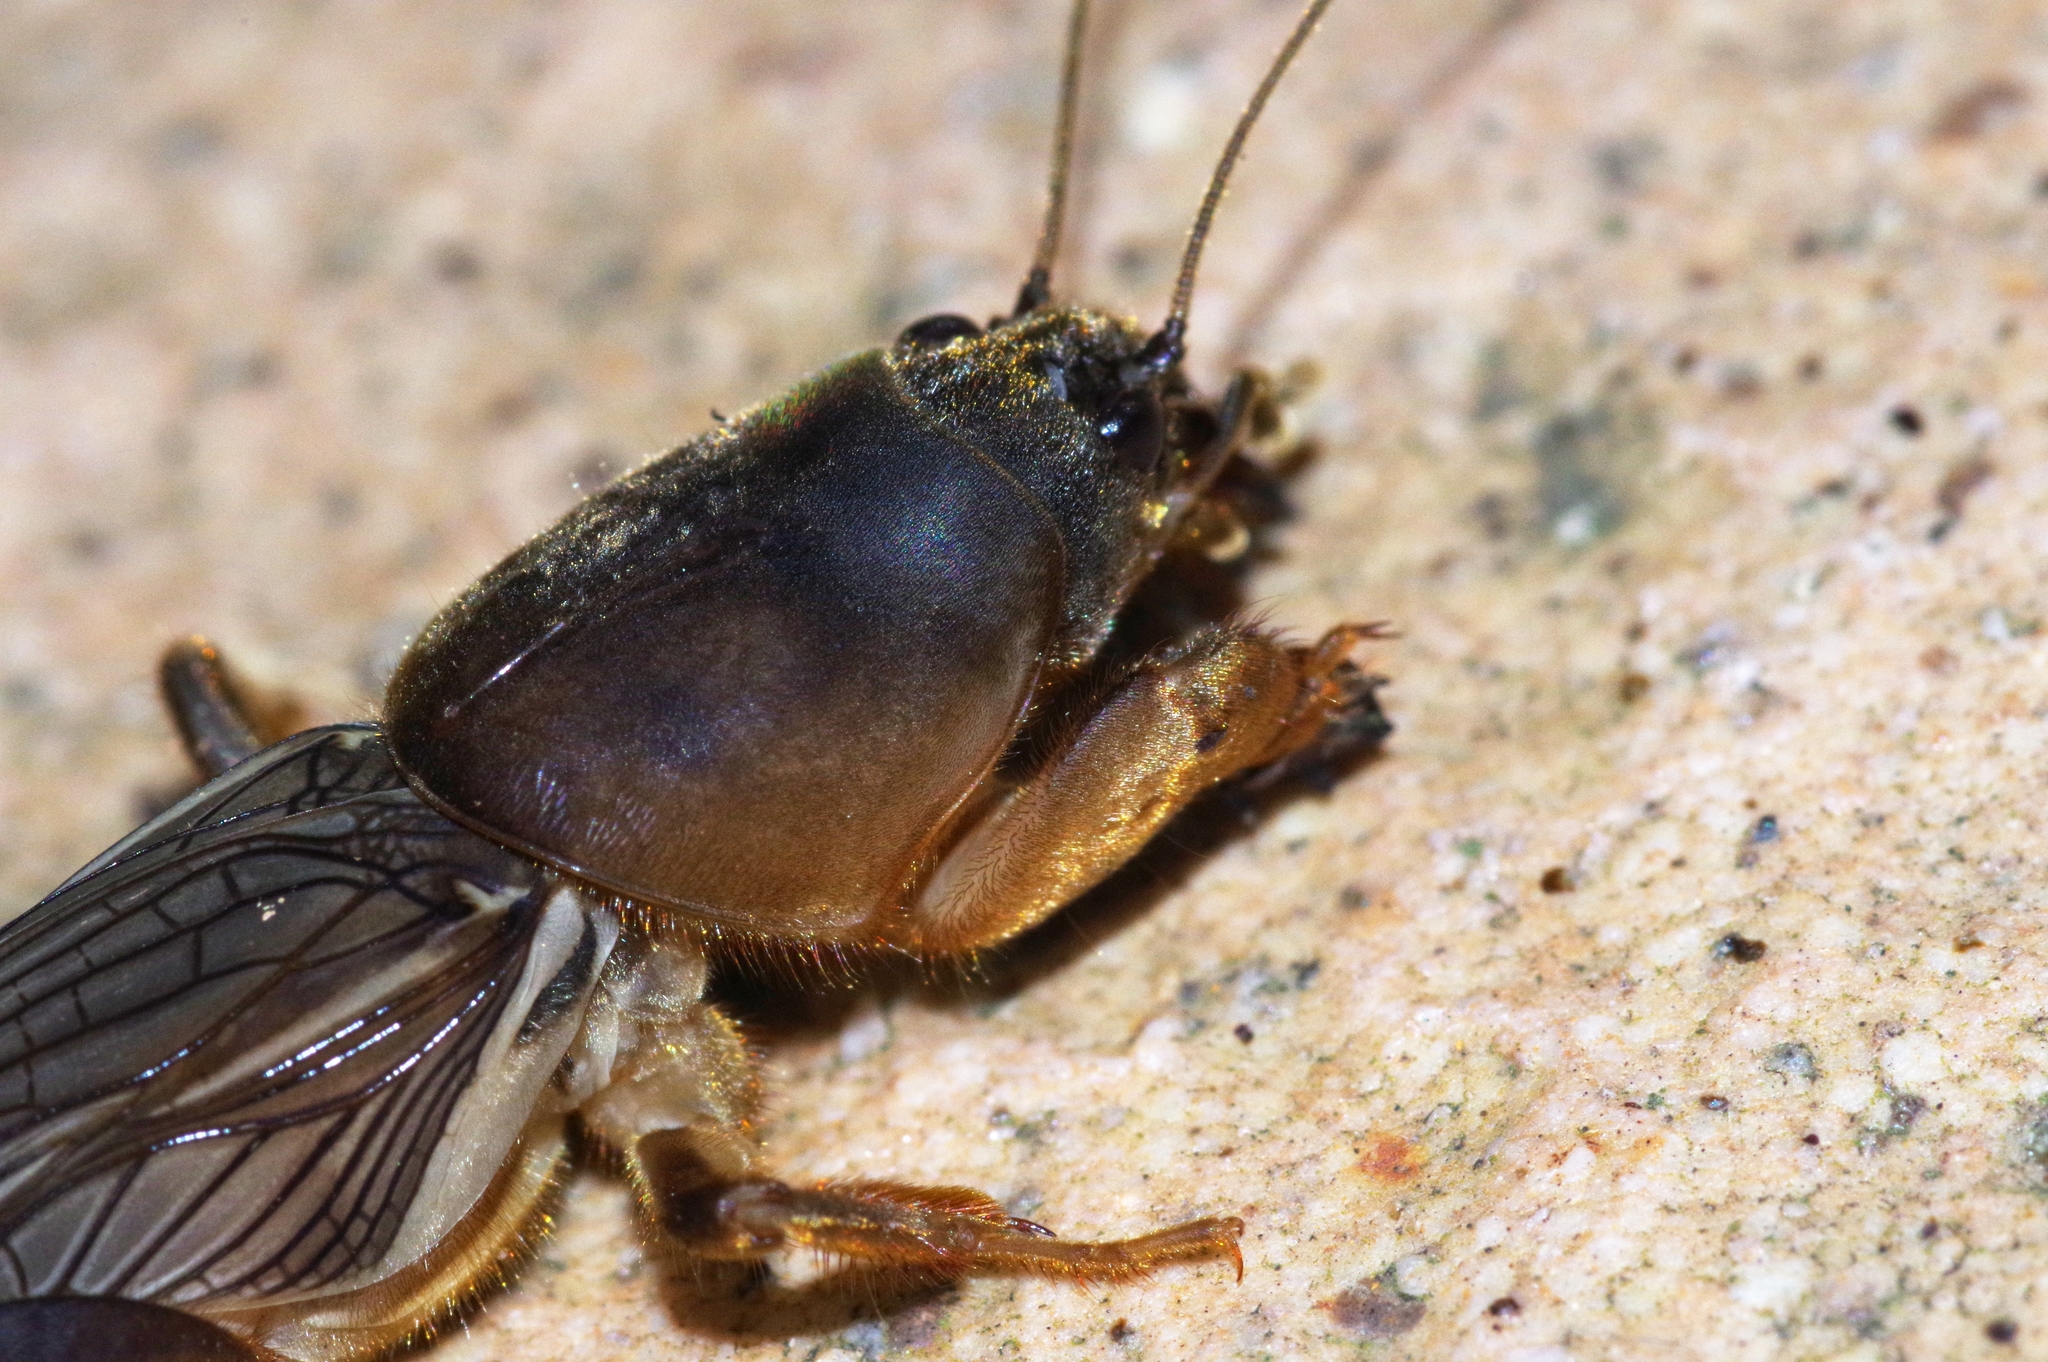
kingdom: Animalia
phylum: Arthropoda
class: Insecta
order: Orthoptera
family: Gryllotalpidae
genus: Gryllotalpa
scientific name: Gryllotalpa orientalis
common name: Grasshopper
